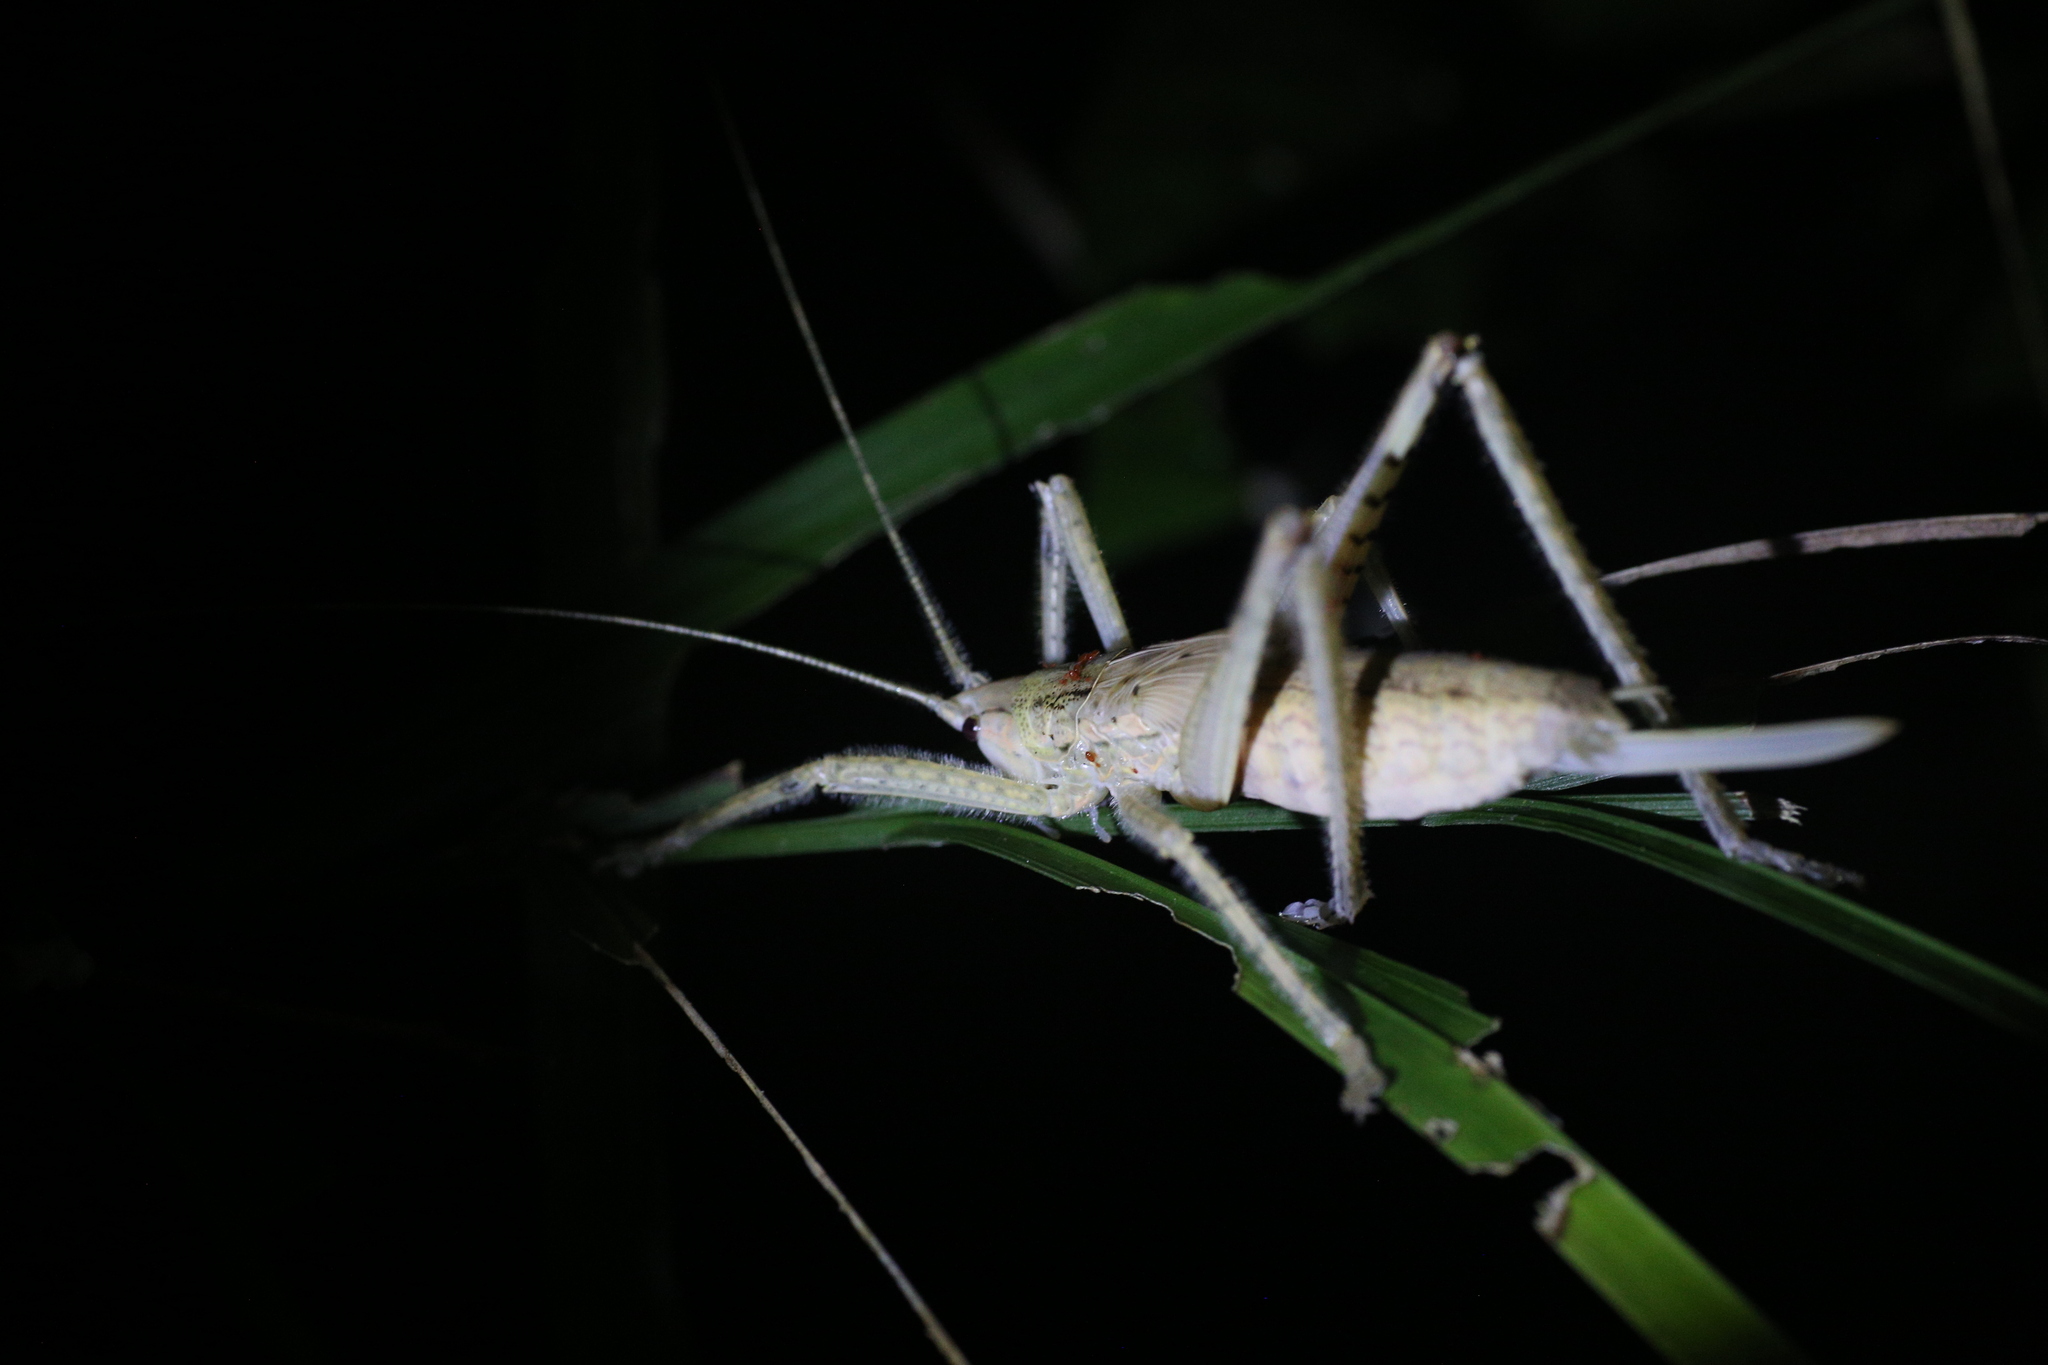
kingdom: Animalia
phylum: Arthropoda
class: Insecta
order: Orthoptera
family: Tettigoniidae
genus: Segestidea
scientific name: Segestidea queenslandica
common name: Queensland palm katydid
